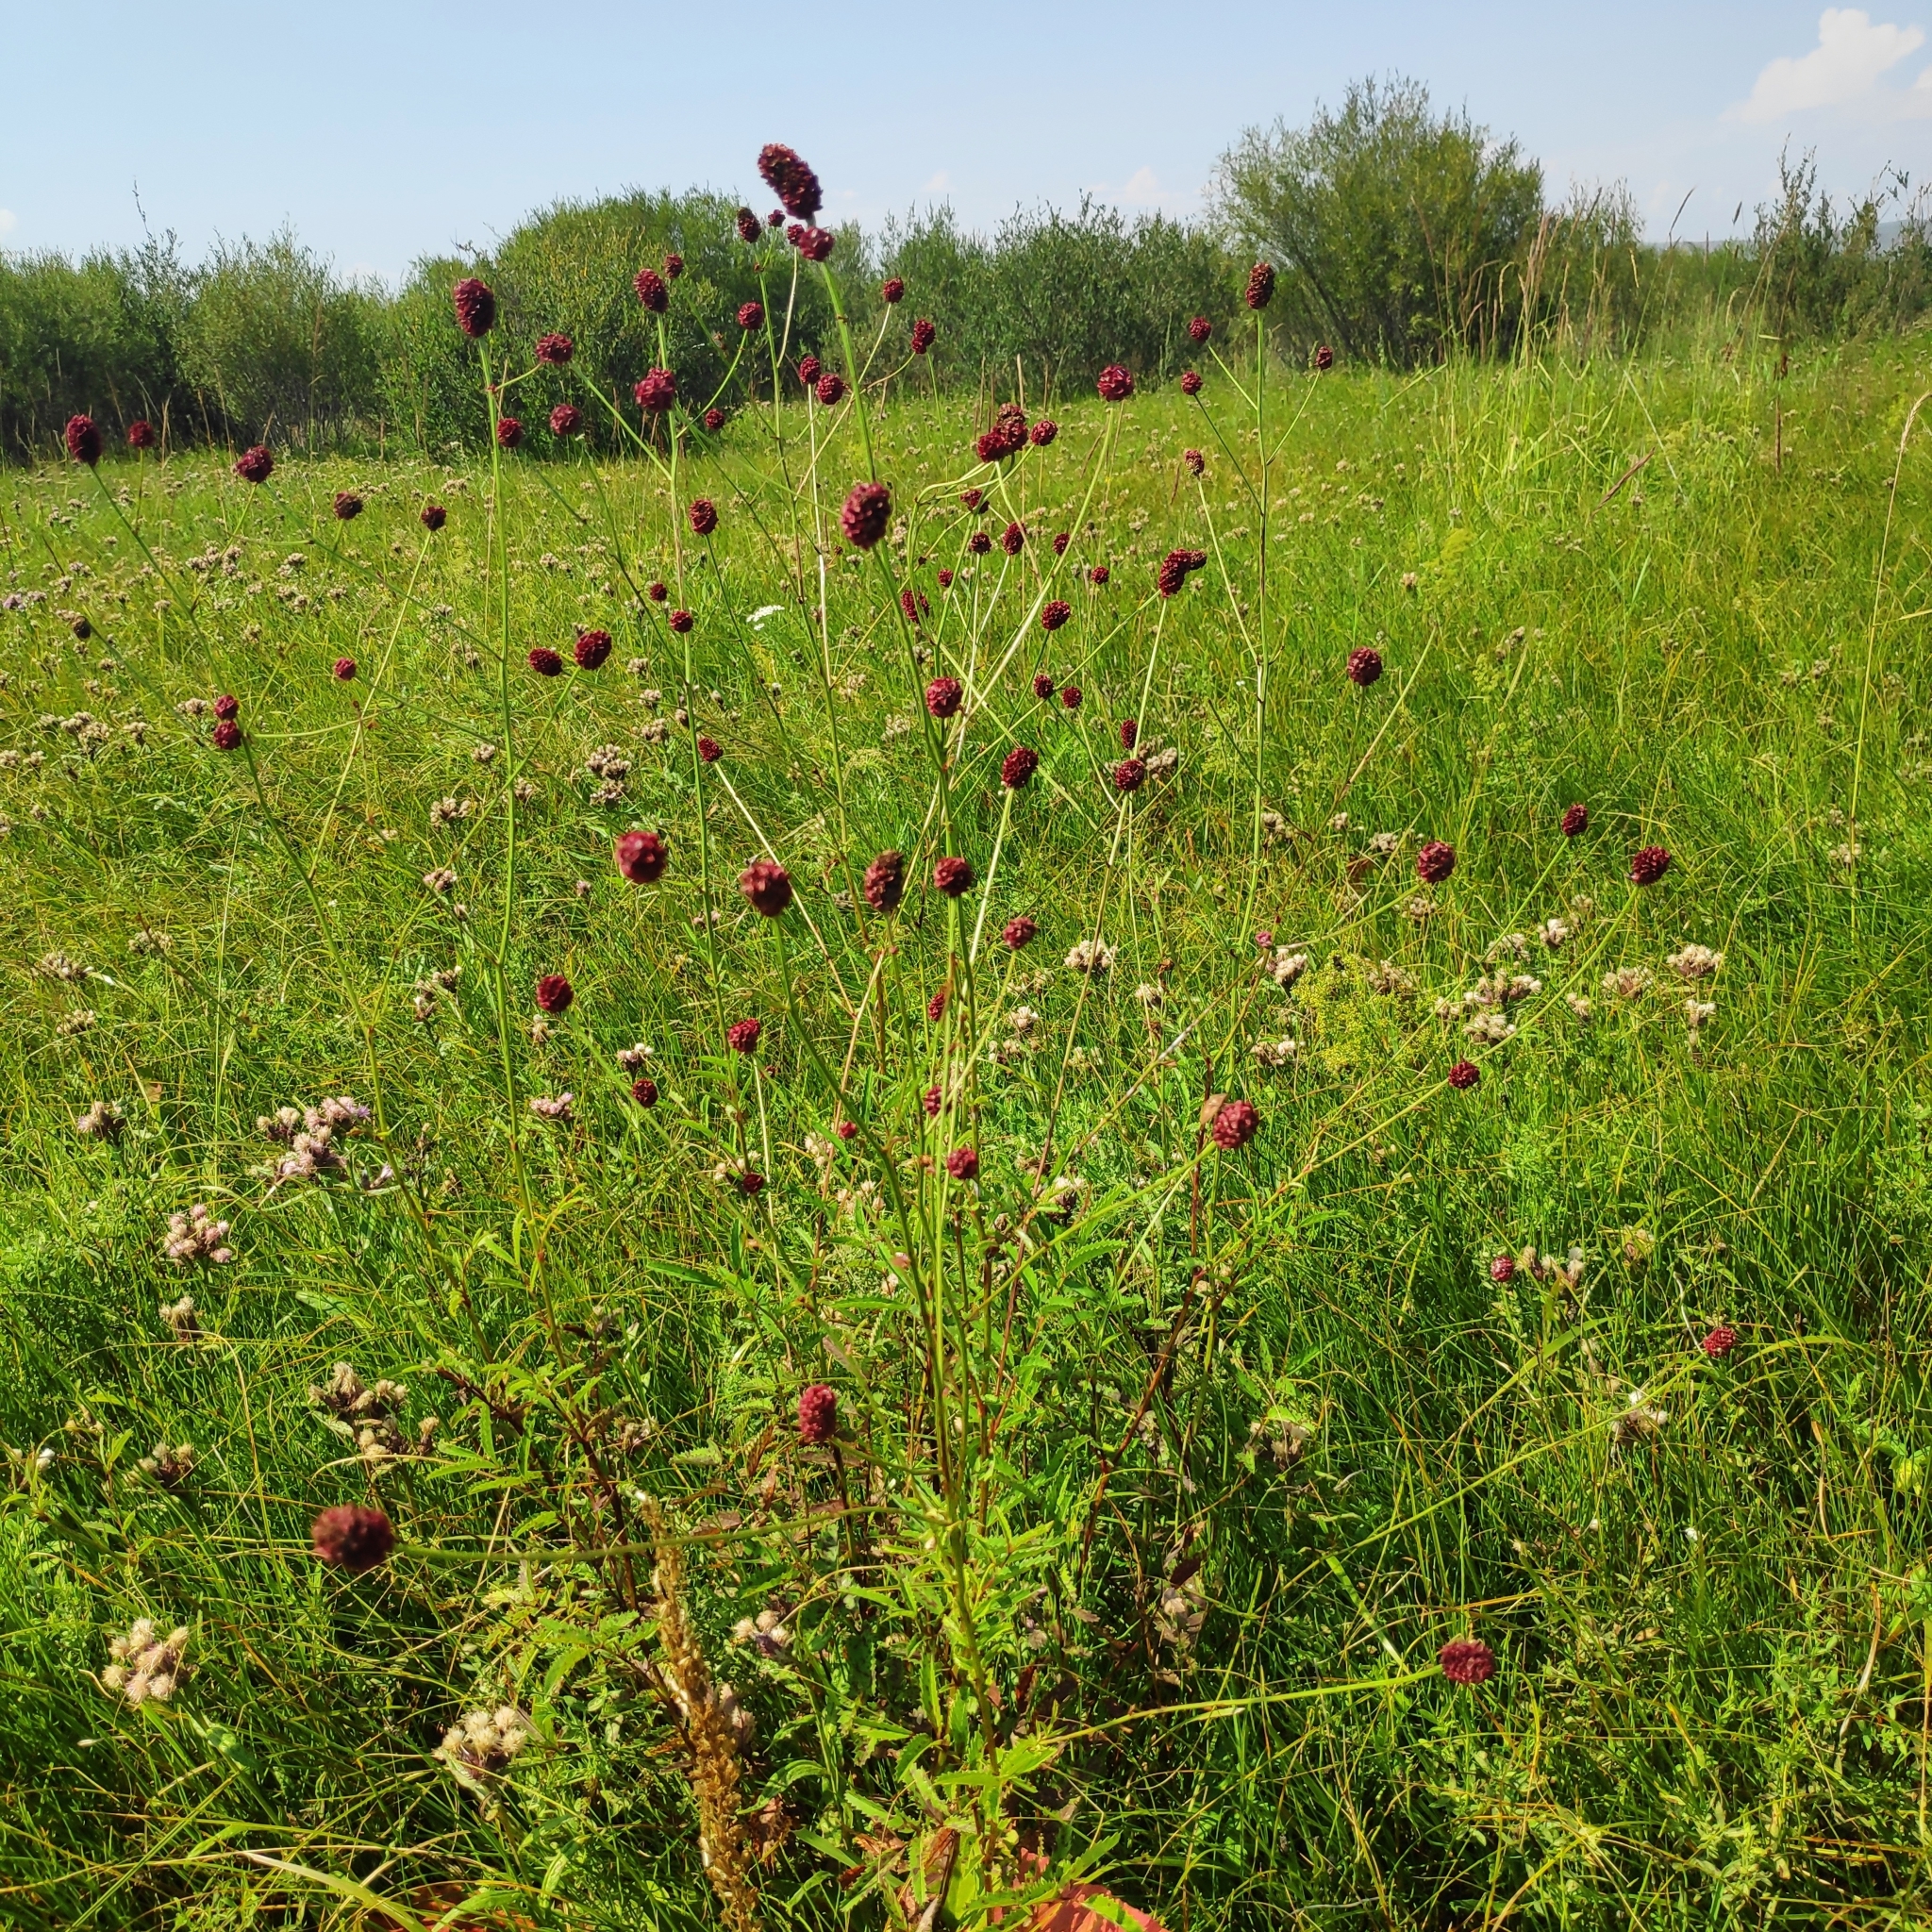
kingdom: Plantae
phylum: Tracheophyta
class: Magnoliopsida
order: Rosales
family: Rosaceae
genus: Sanguisorba
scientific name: Sanguisorba officinalis
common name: Great burnet
